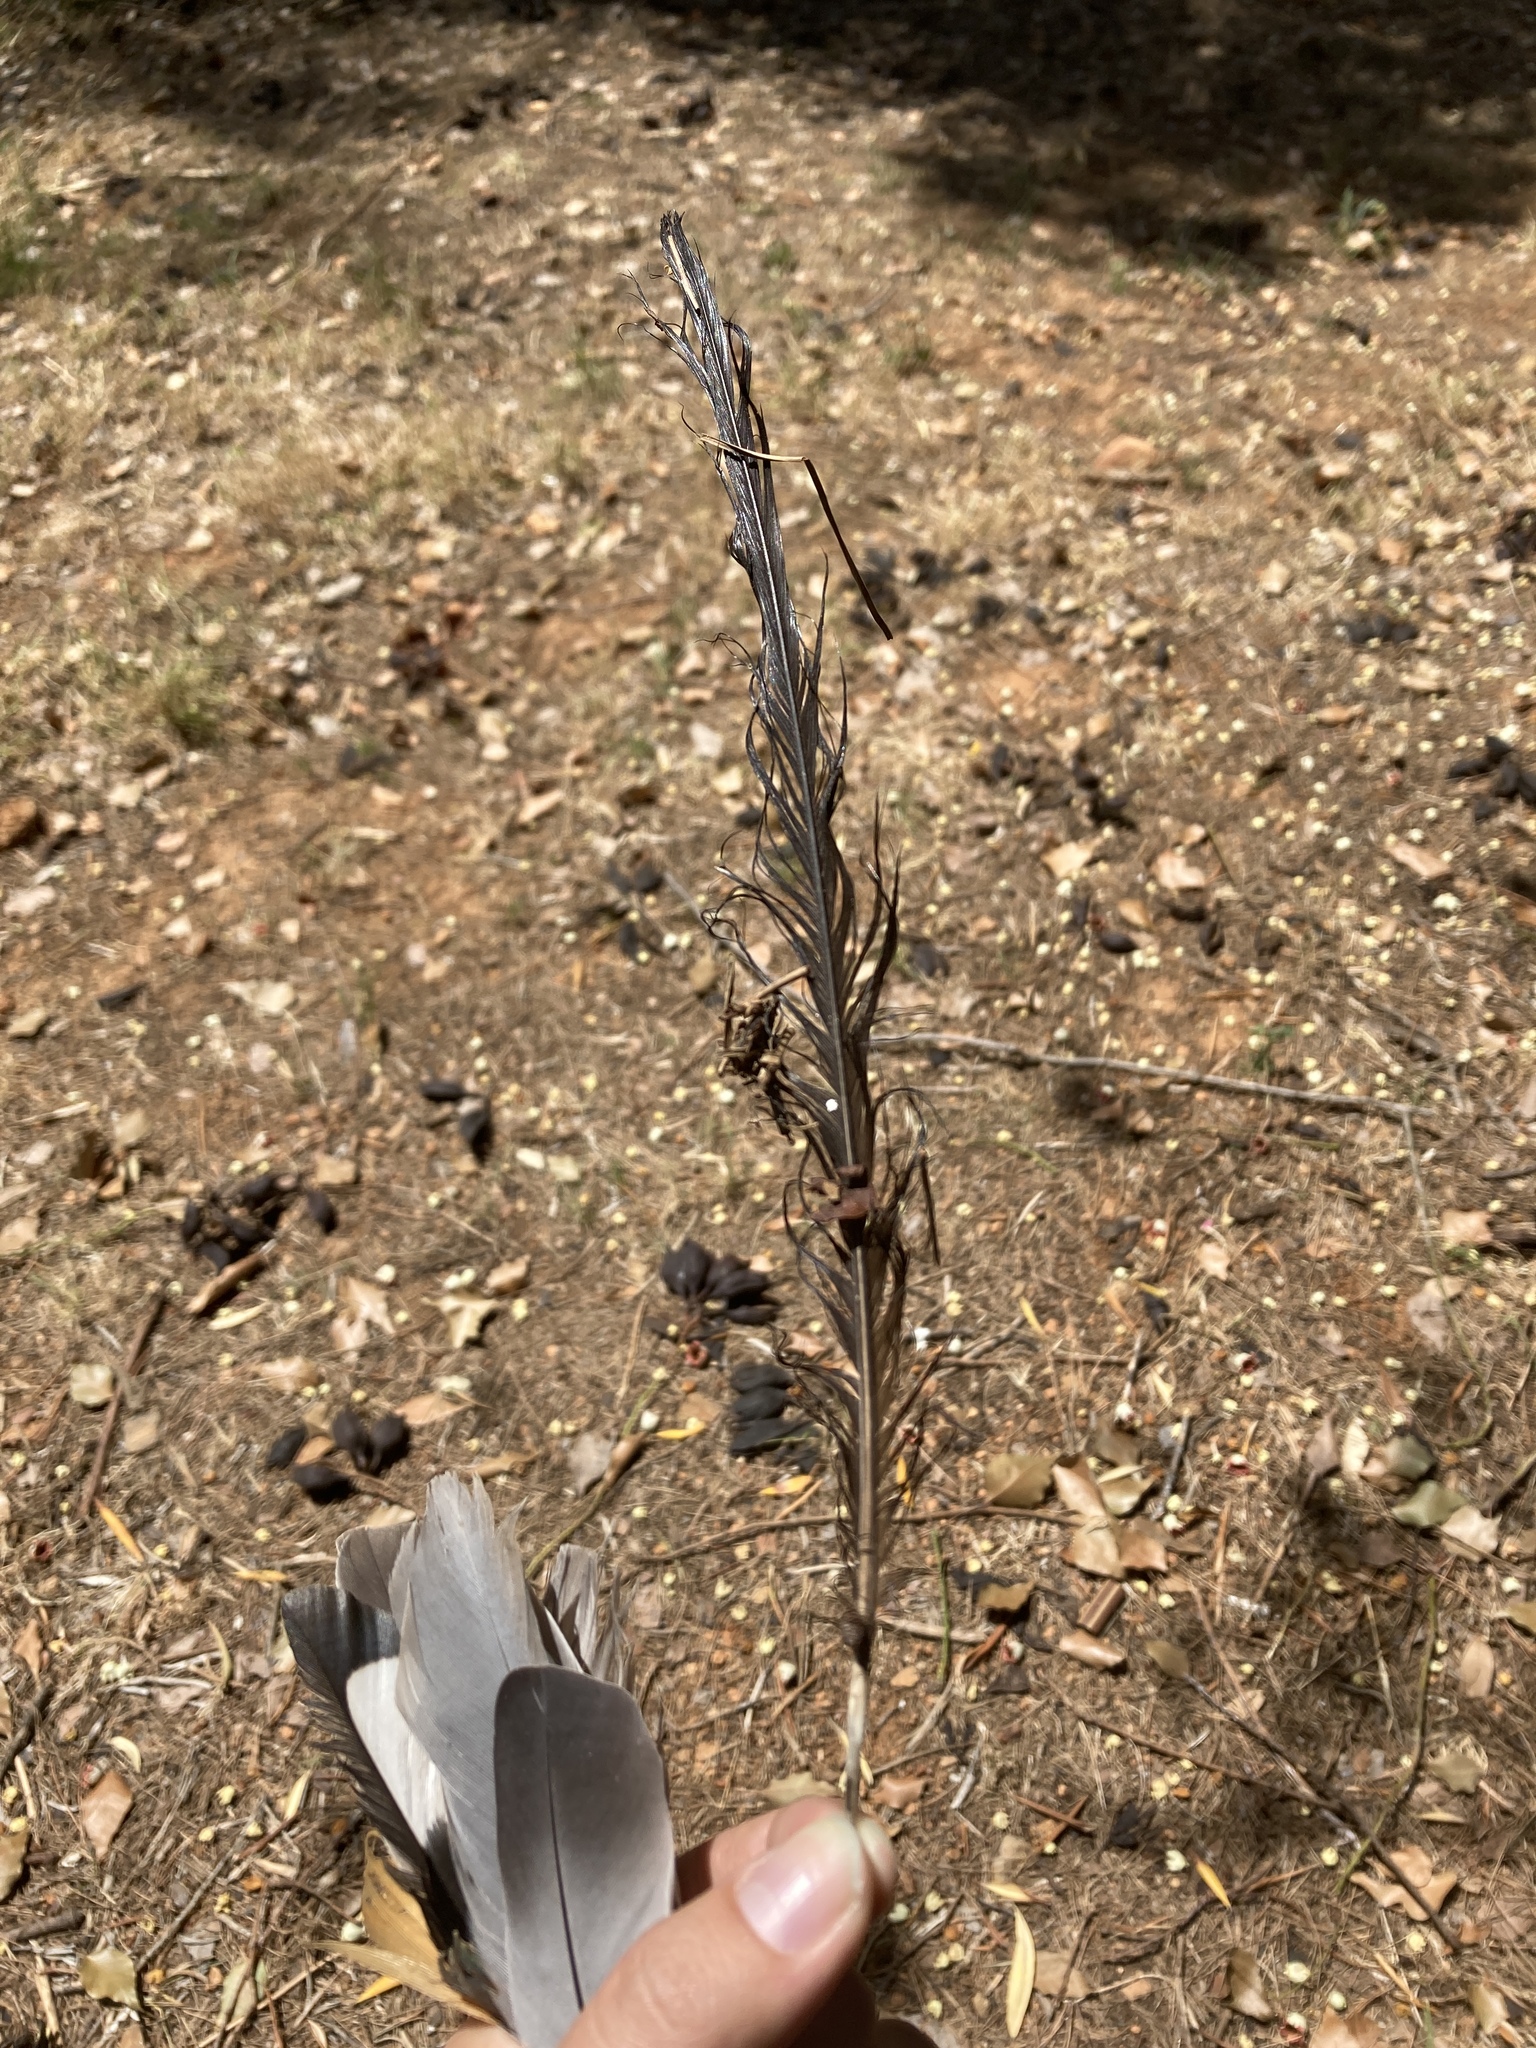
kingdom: Animalia
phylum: Chordata
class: Aves
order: Passeriformes
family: Corvidae
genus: Pica
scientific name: Pica pica
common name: Eurasian magpie
